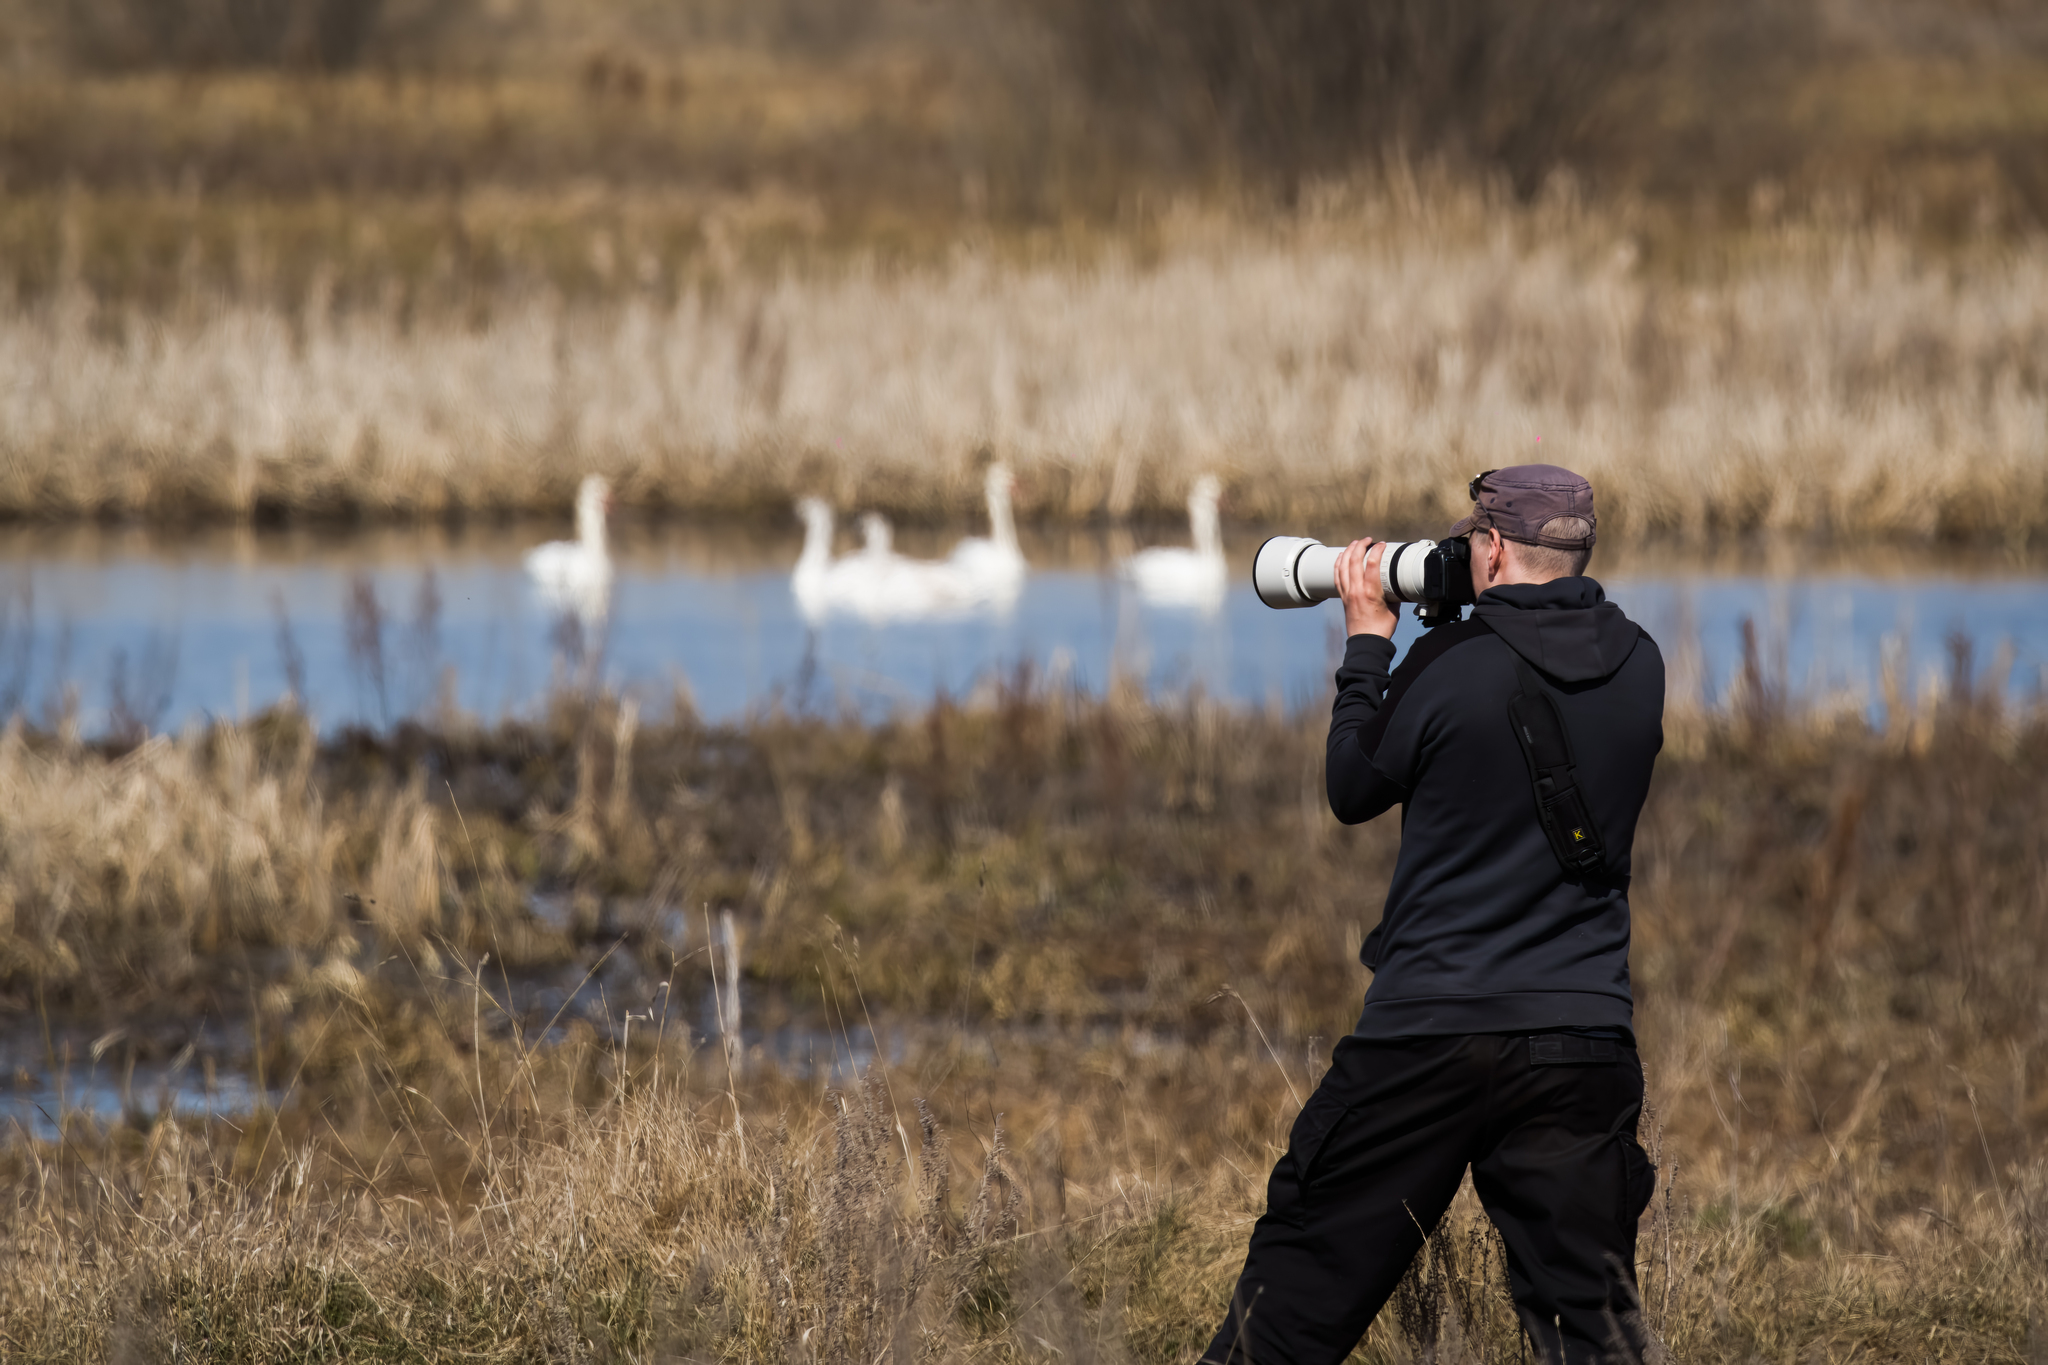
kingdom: Animalia
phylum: Chordata
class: Aves
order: Anseriformes
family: Anatidae
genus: Cygnus
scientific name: Cygnus olor
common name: Mute swan
